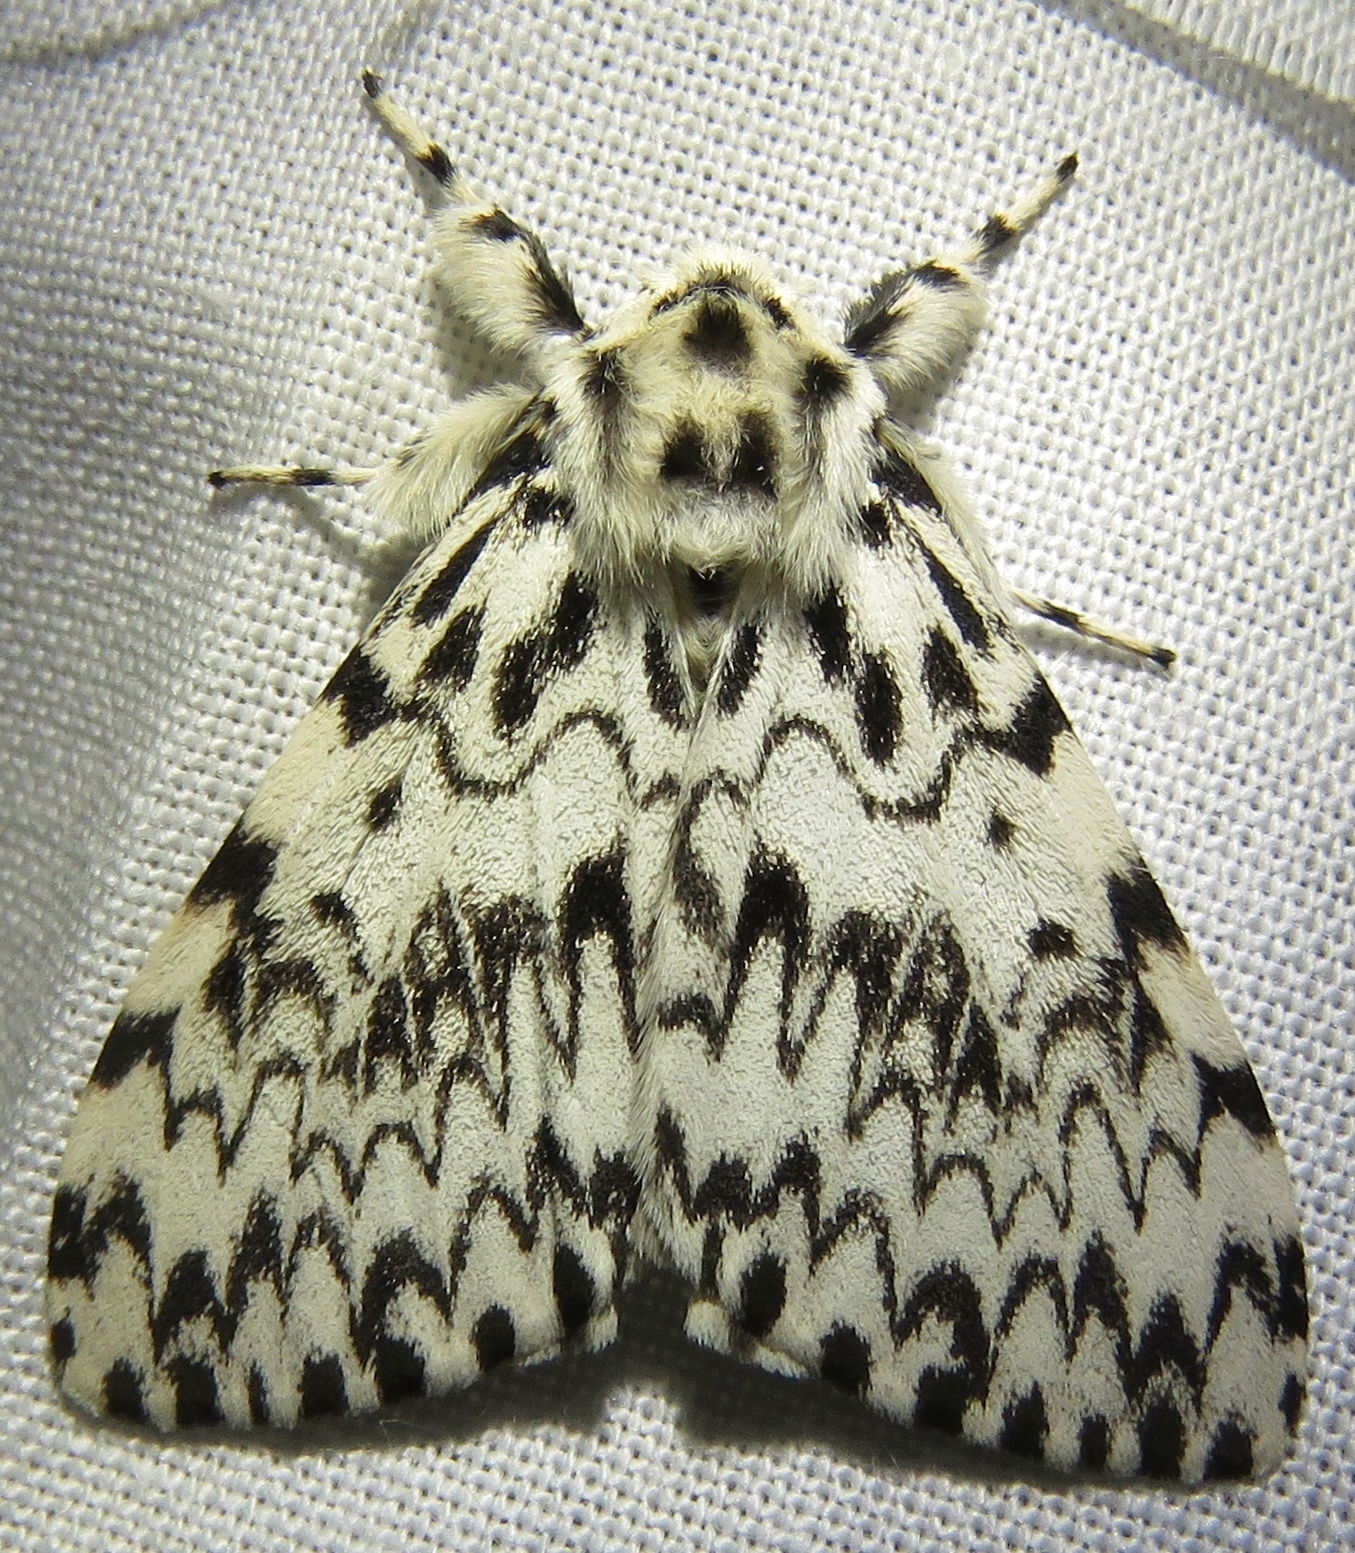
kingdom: Animalia
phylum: Arthropoda
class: Insecta
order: Lepidoptera
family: Erebidae
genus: Lymantria
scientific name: Lymantria monacha
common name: Black arches
